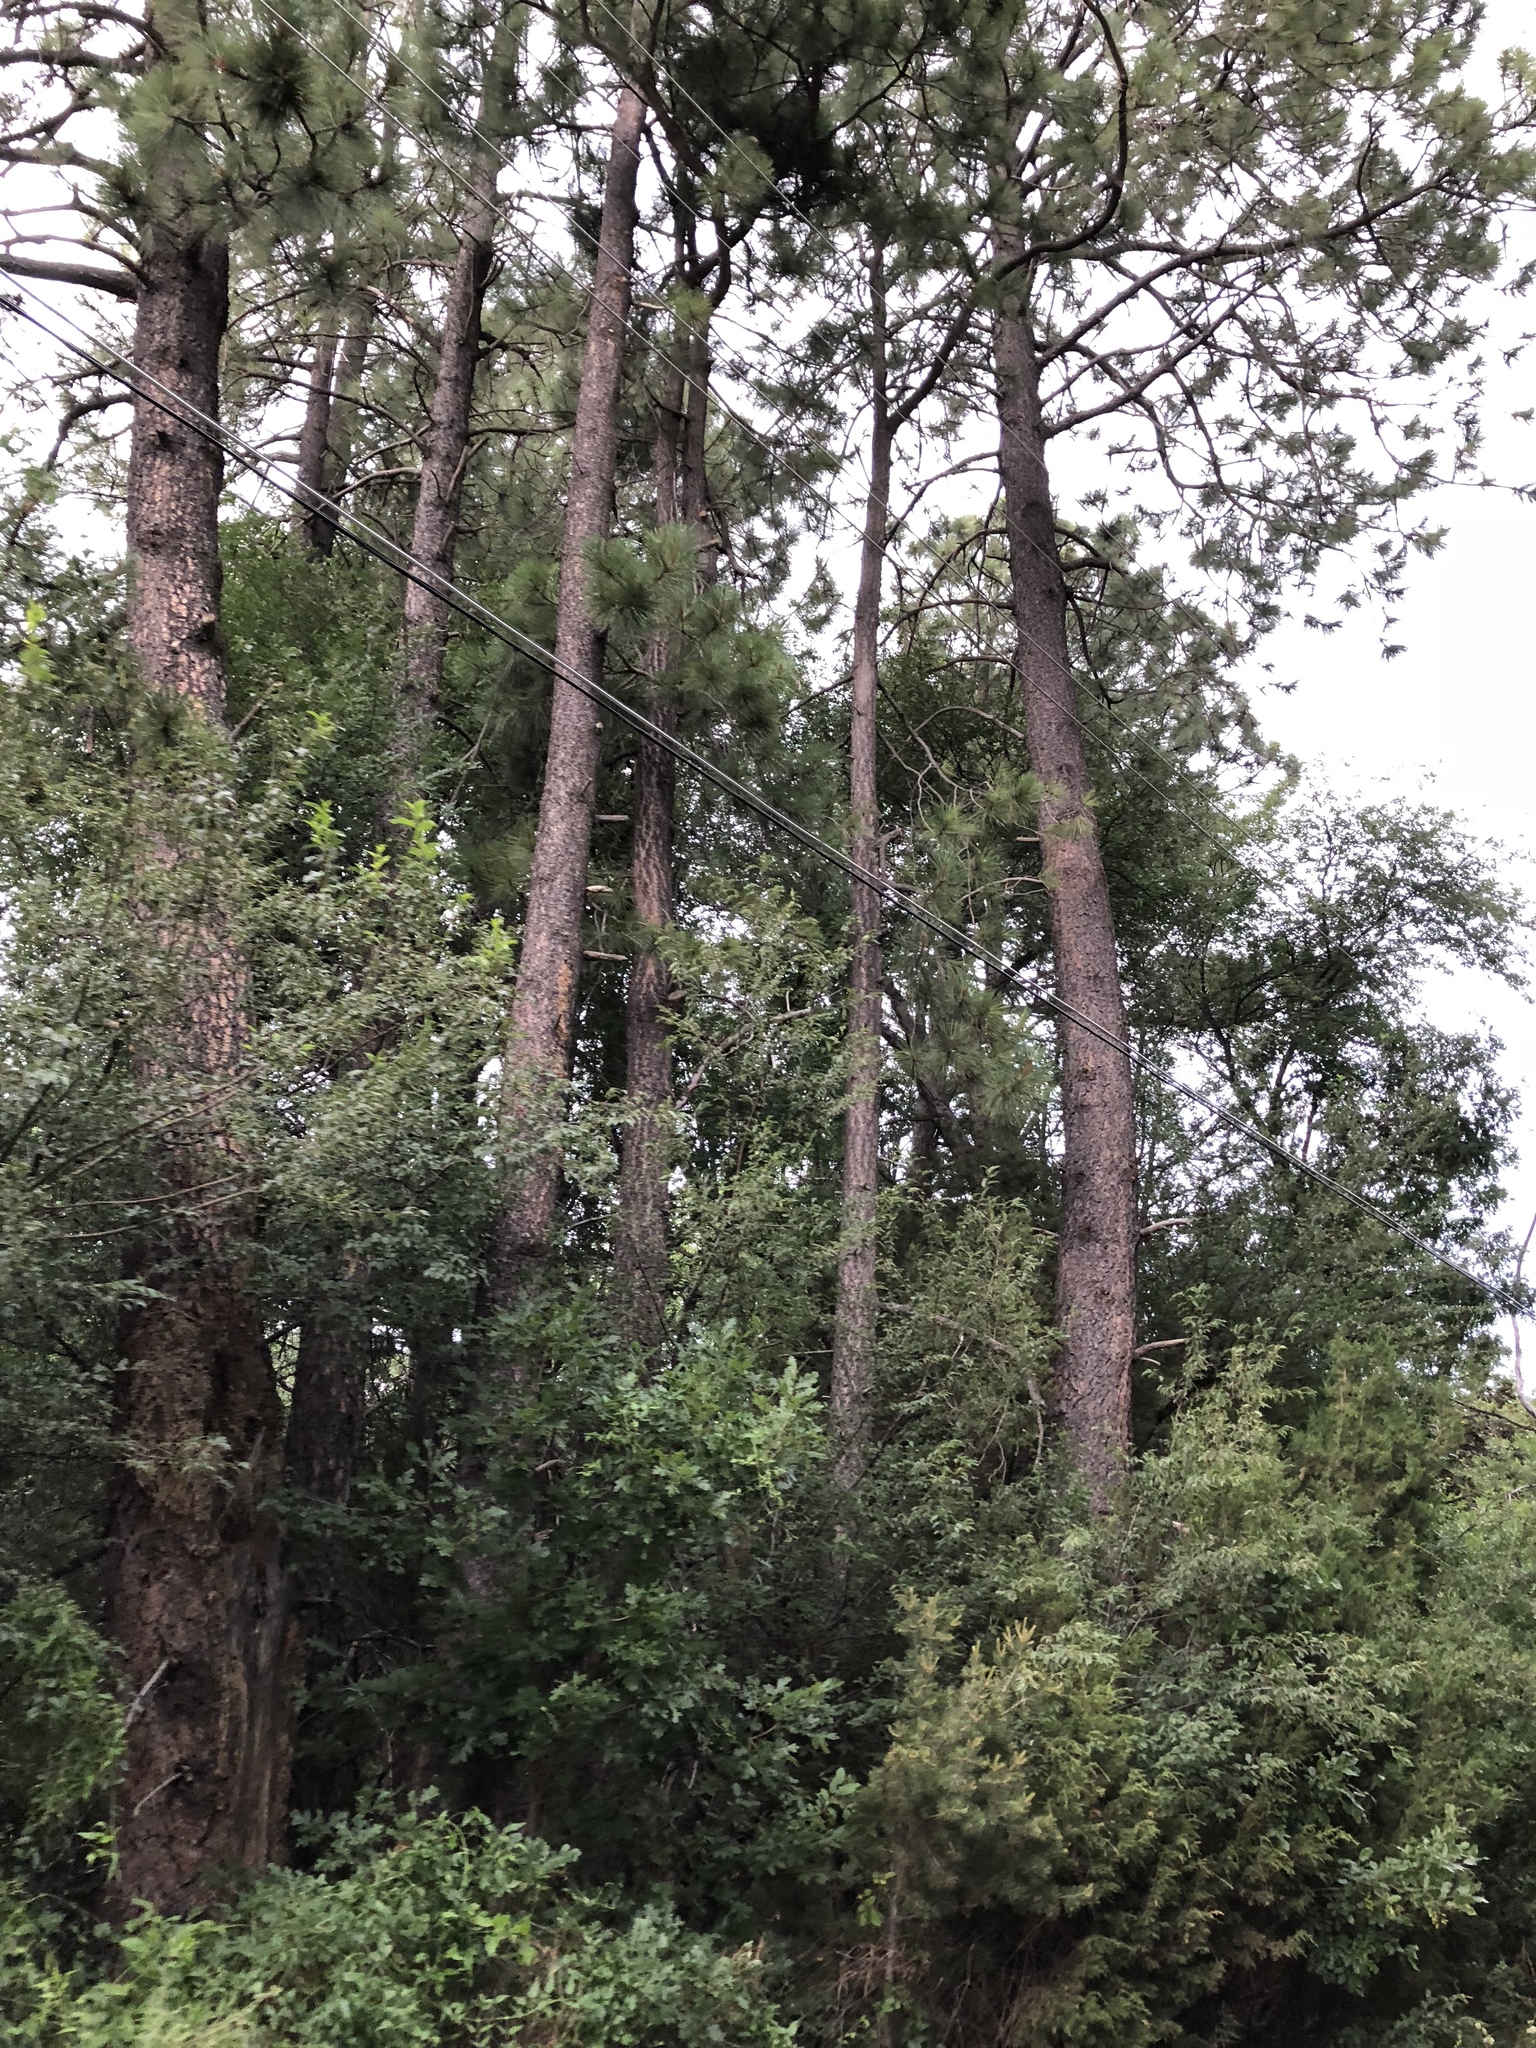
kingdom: Plantae
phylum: Tracheophyta
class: Pinopsida
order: Pinales
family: Pinaceae
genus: Pinus
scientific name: Pinus ponderosa
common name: Western yellow-pine
